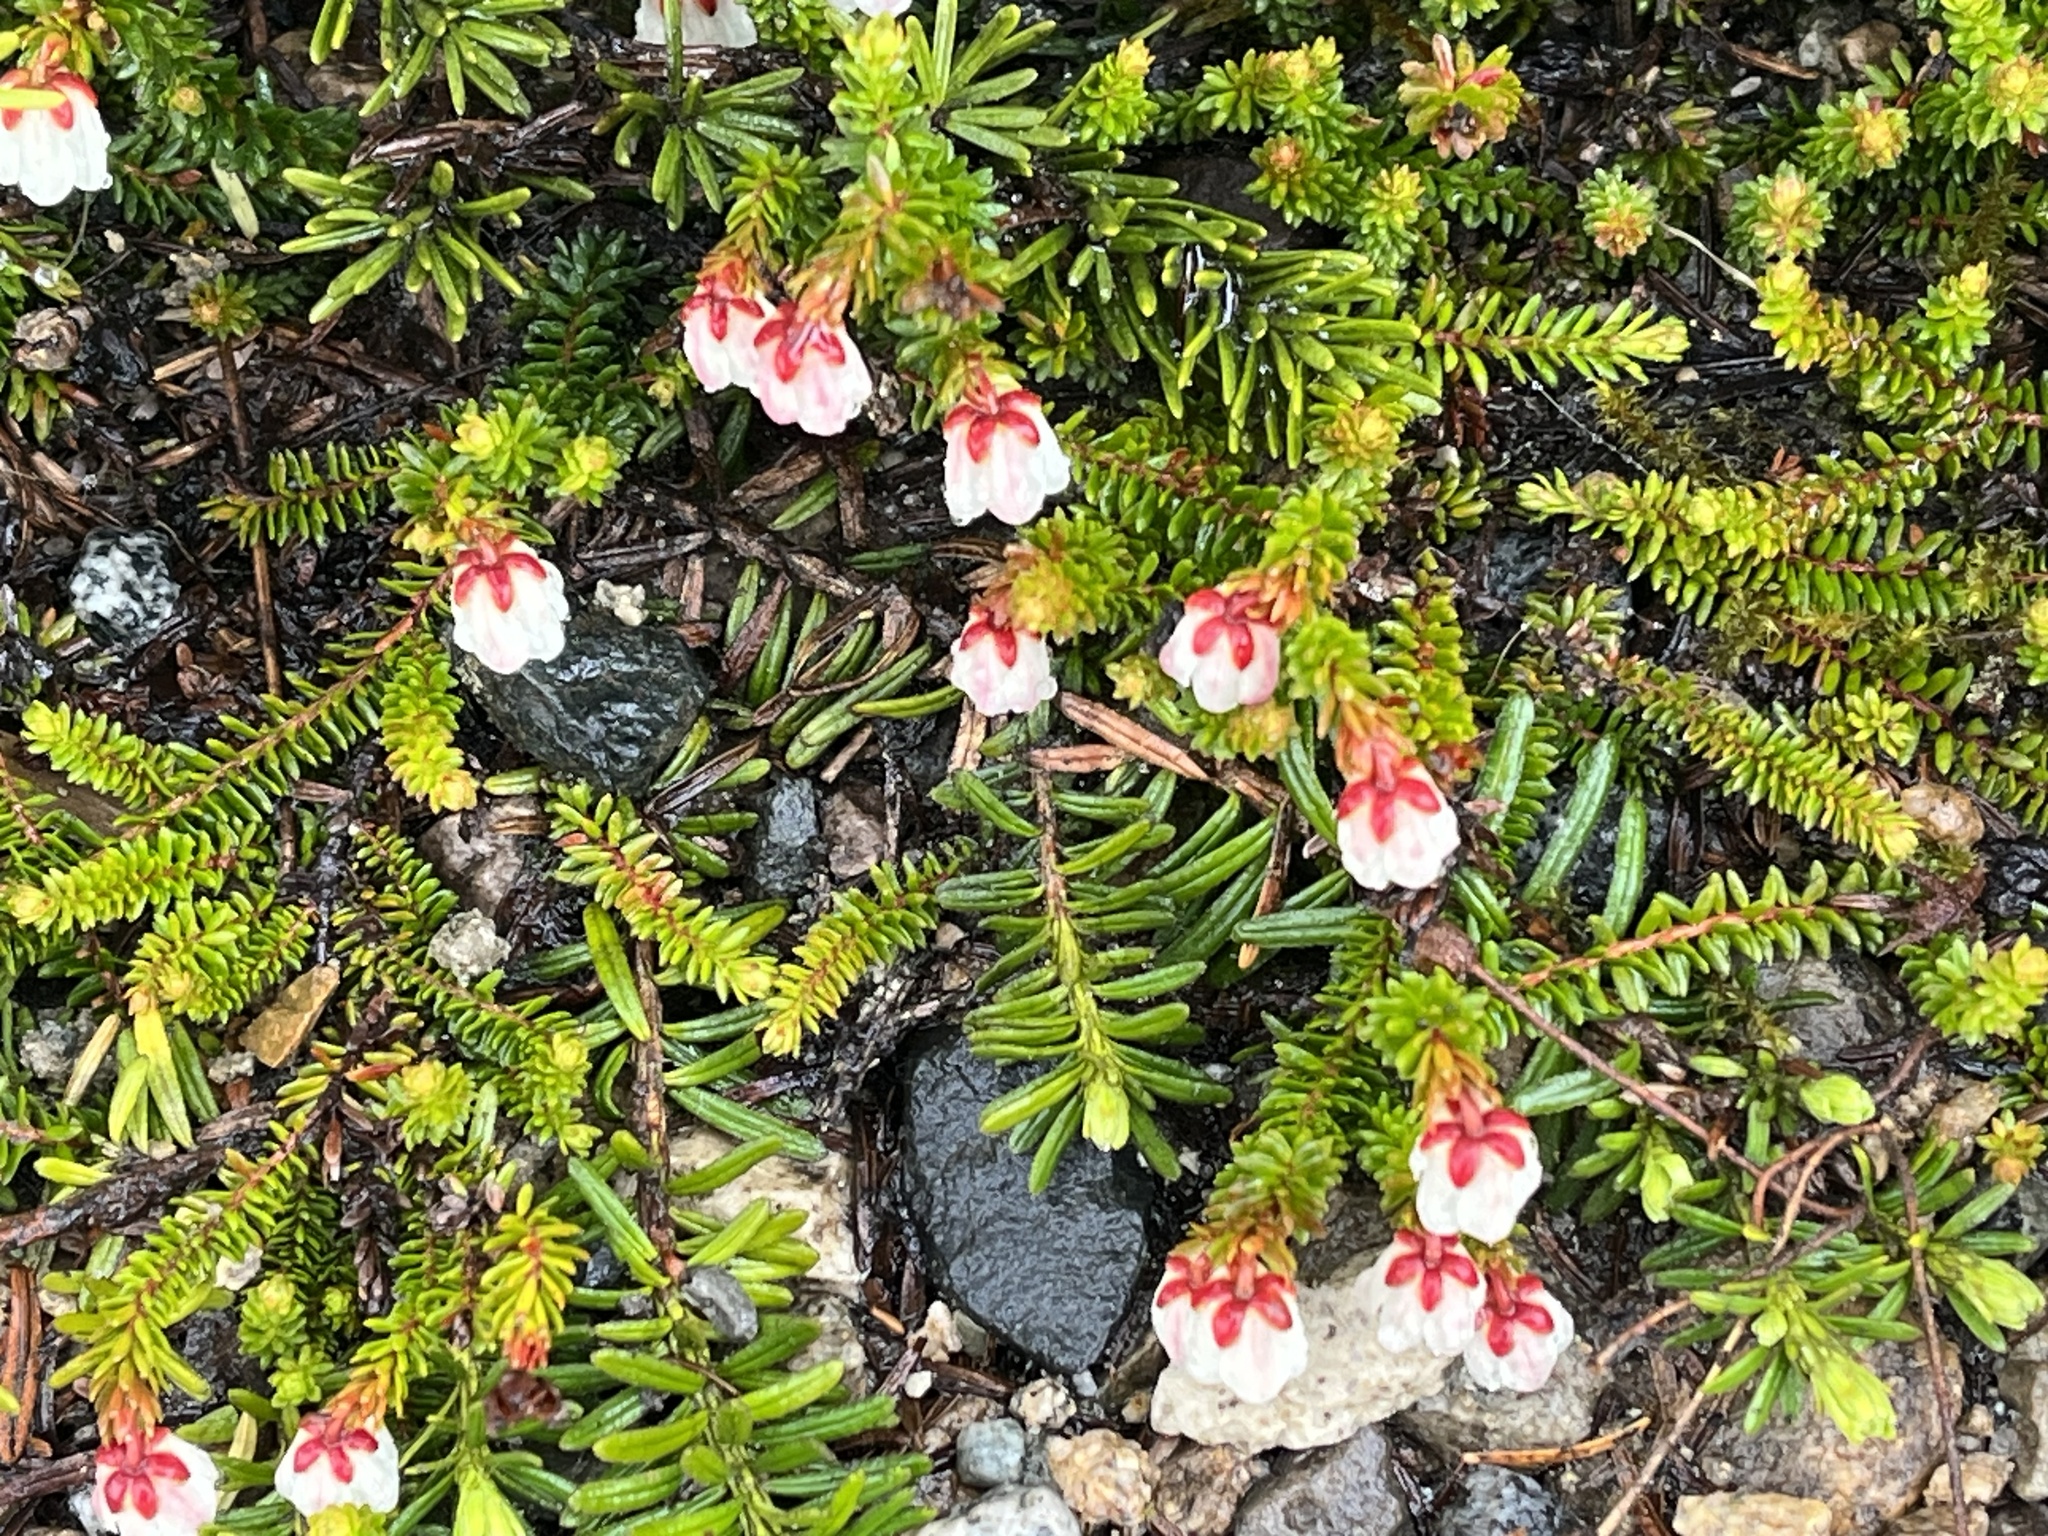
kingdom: Plantae
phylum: Tracheophyta
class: Magnoliopsida
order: Ericales
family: Ericaceae
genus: Harrimanella
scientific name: Harrimanella stelleriana
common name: Alaska bell heather
